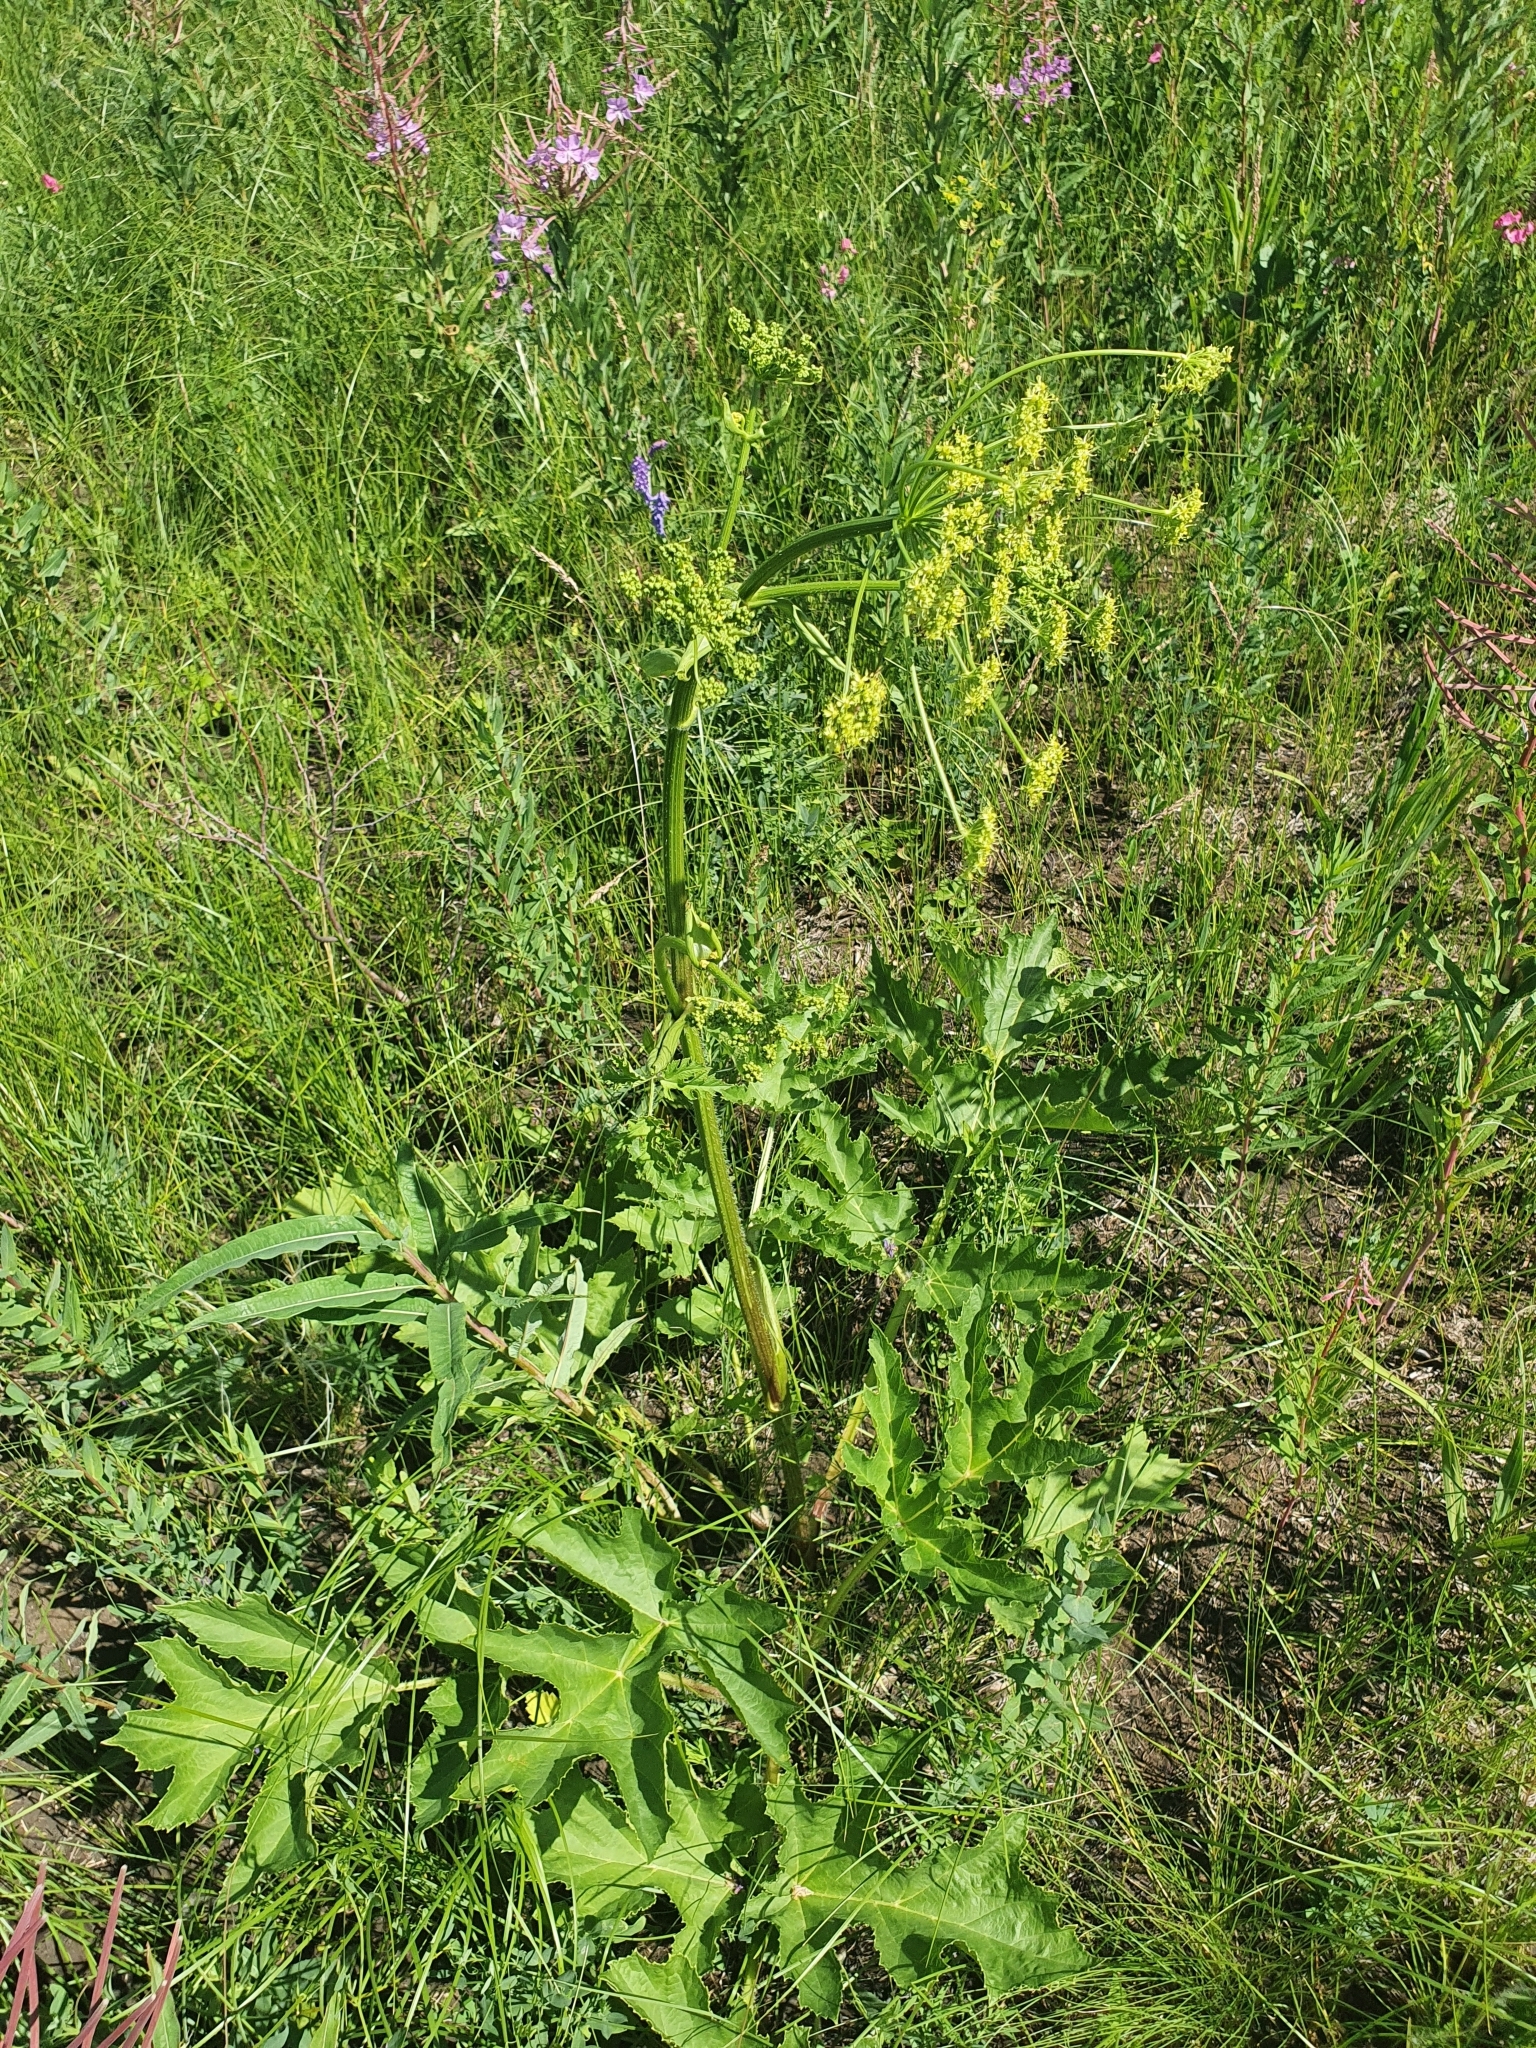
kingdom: Plantae
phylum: Tracheophyta
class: Magnoliopsida
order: Apiales
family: Apiaceae
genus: Heracleum
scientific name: Heracleum sphondylium
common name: Hogweed
